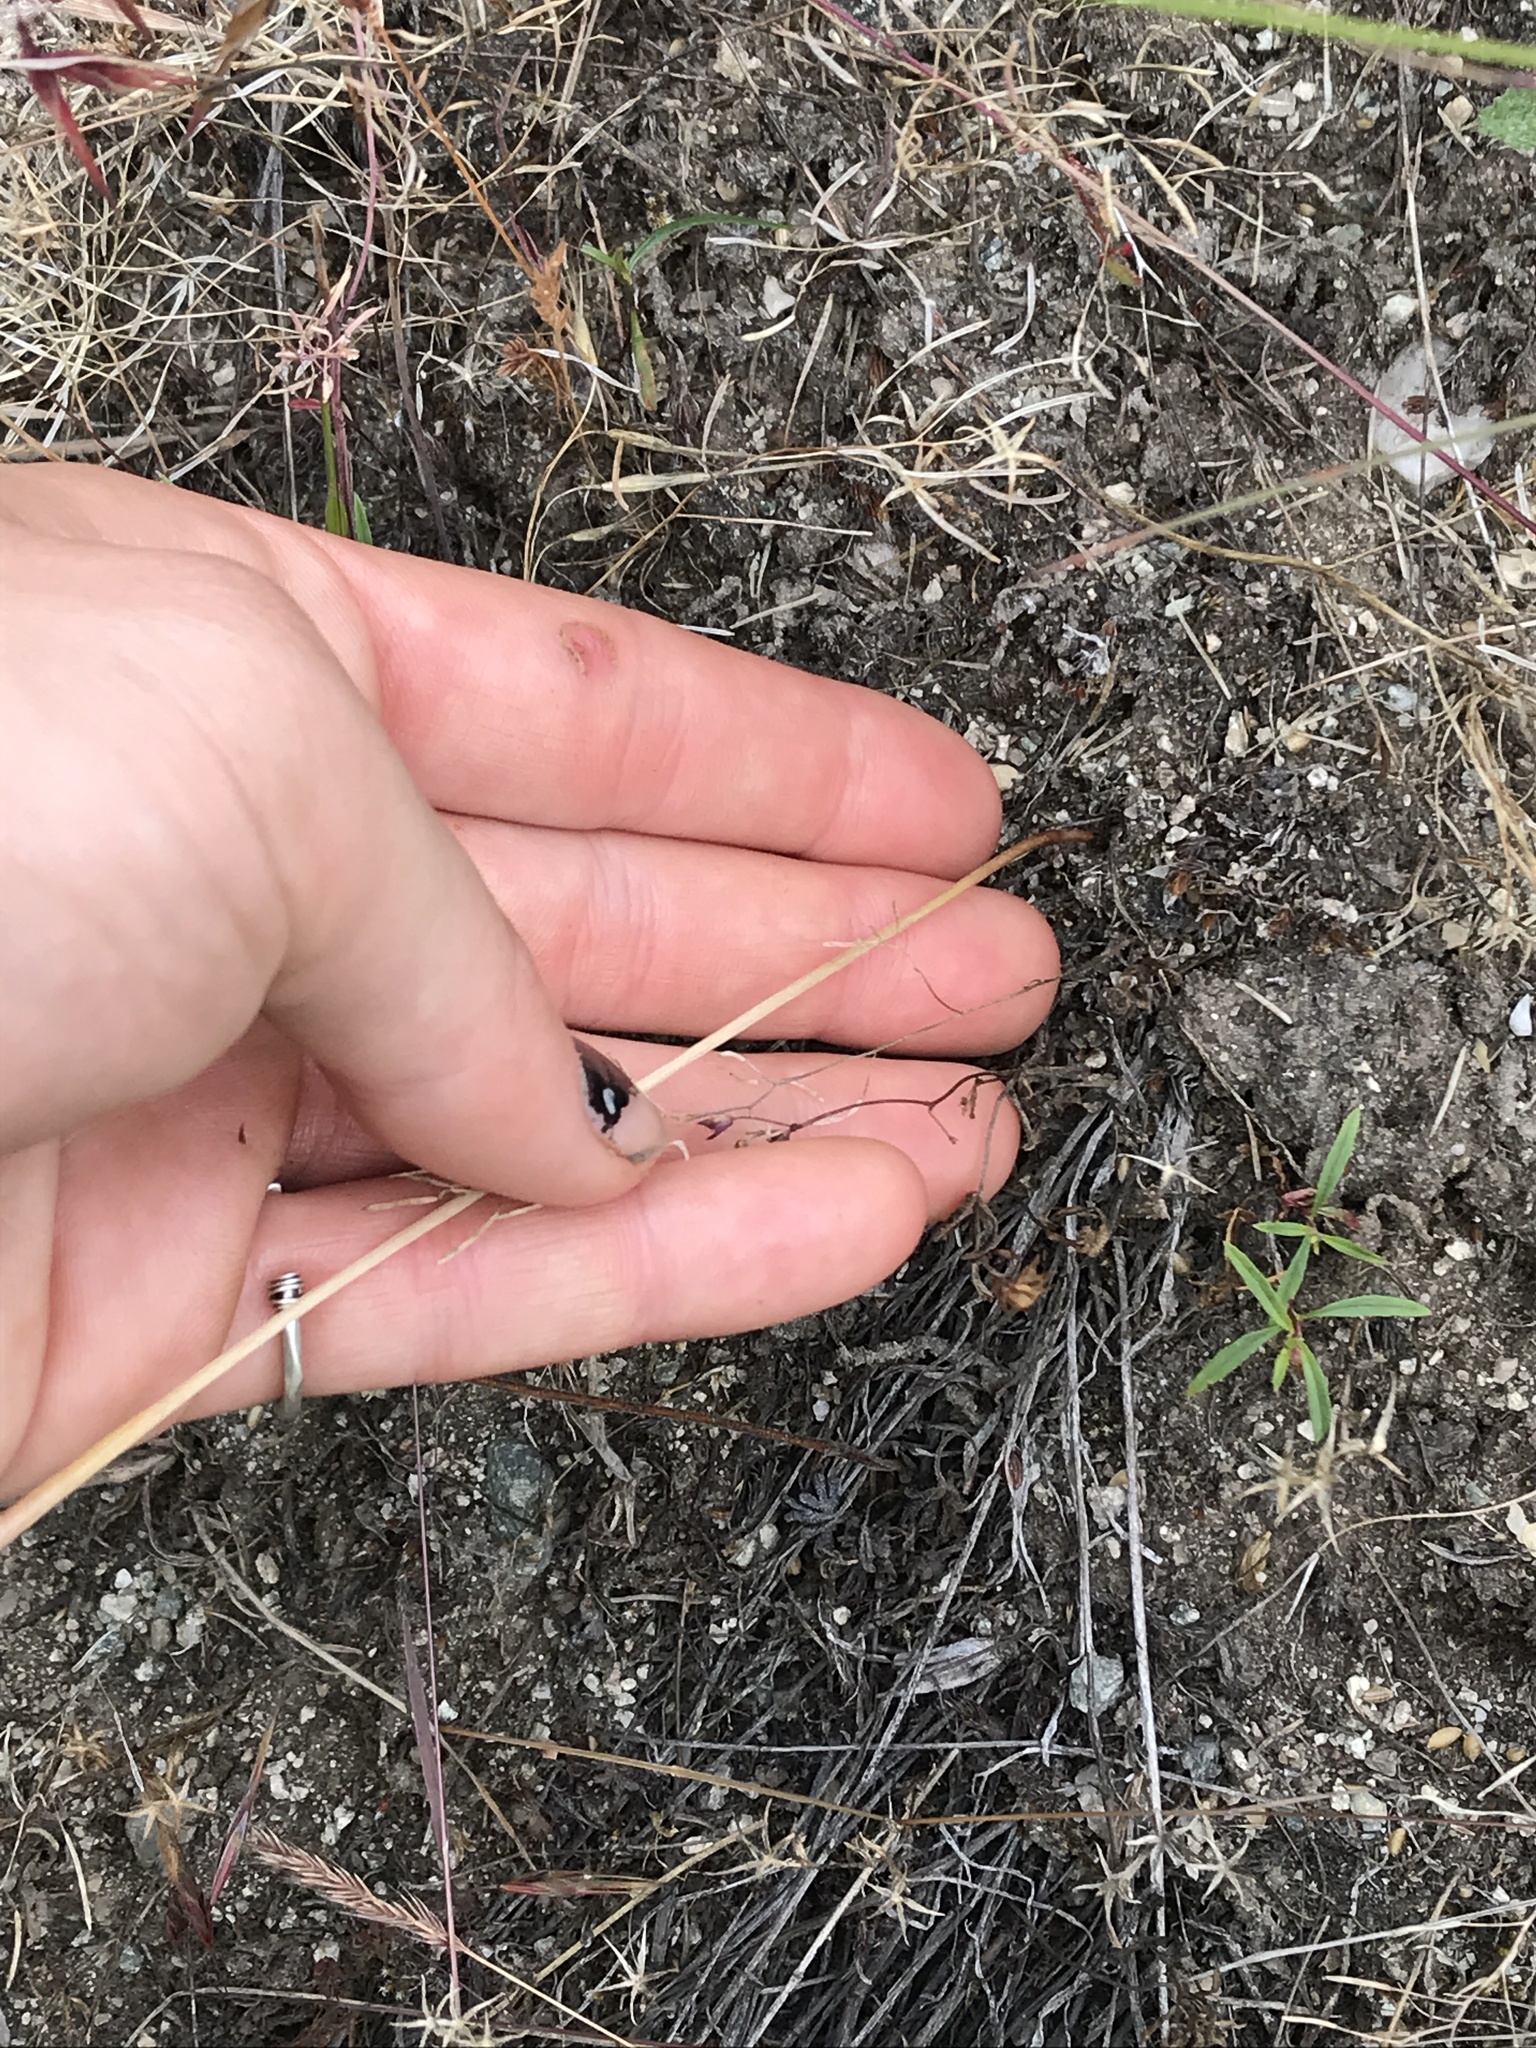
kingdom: Plantae
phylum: Tracheophyta
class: Liliopsida
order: Asparagales
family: Amaryllidaceae
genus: Allium
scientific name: Allium acuminatum
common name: Hooker's onion
